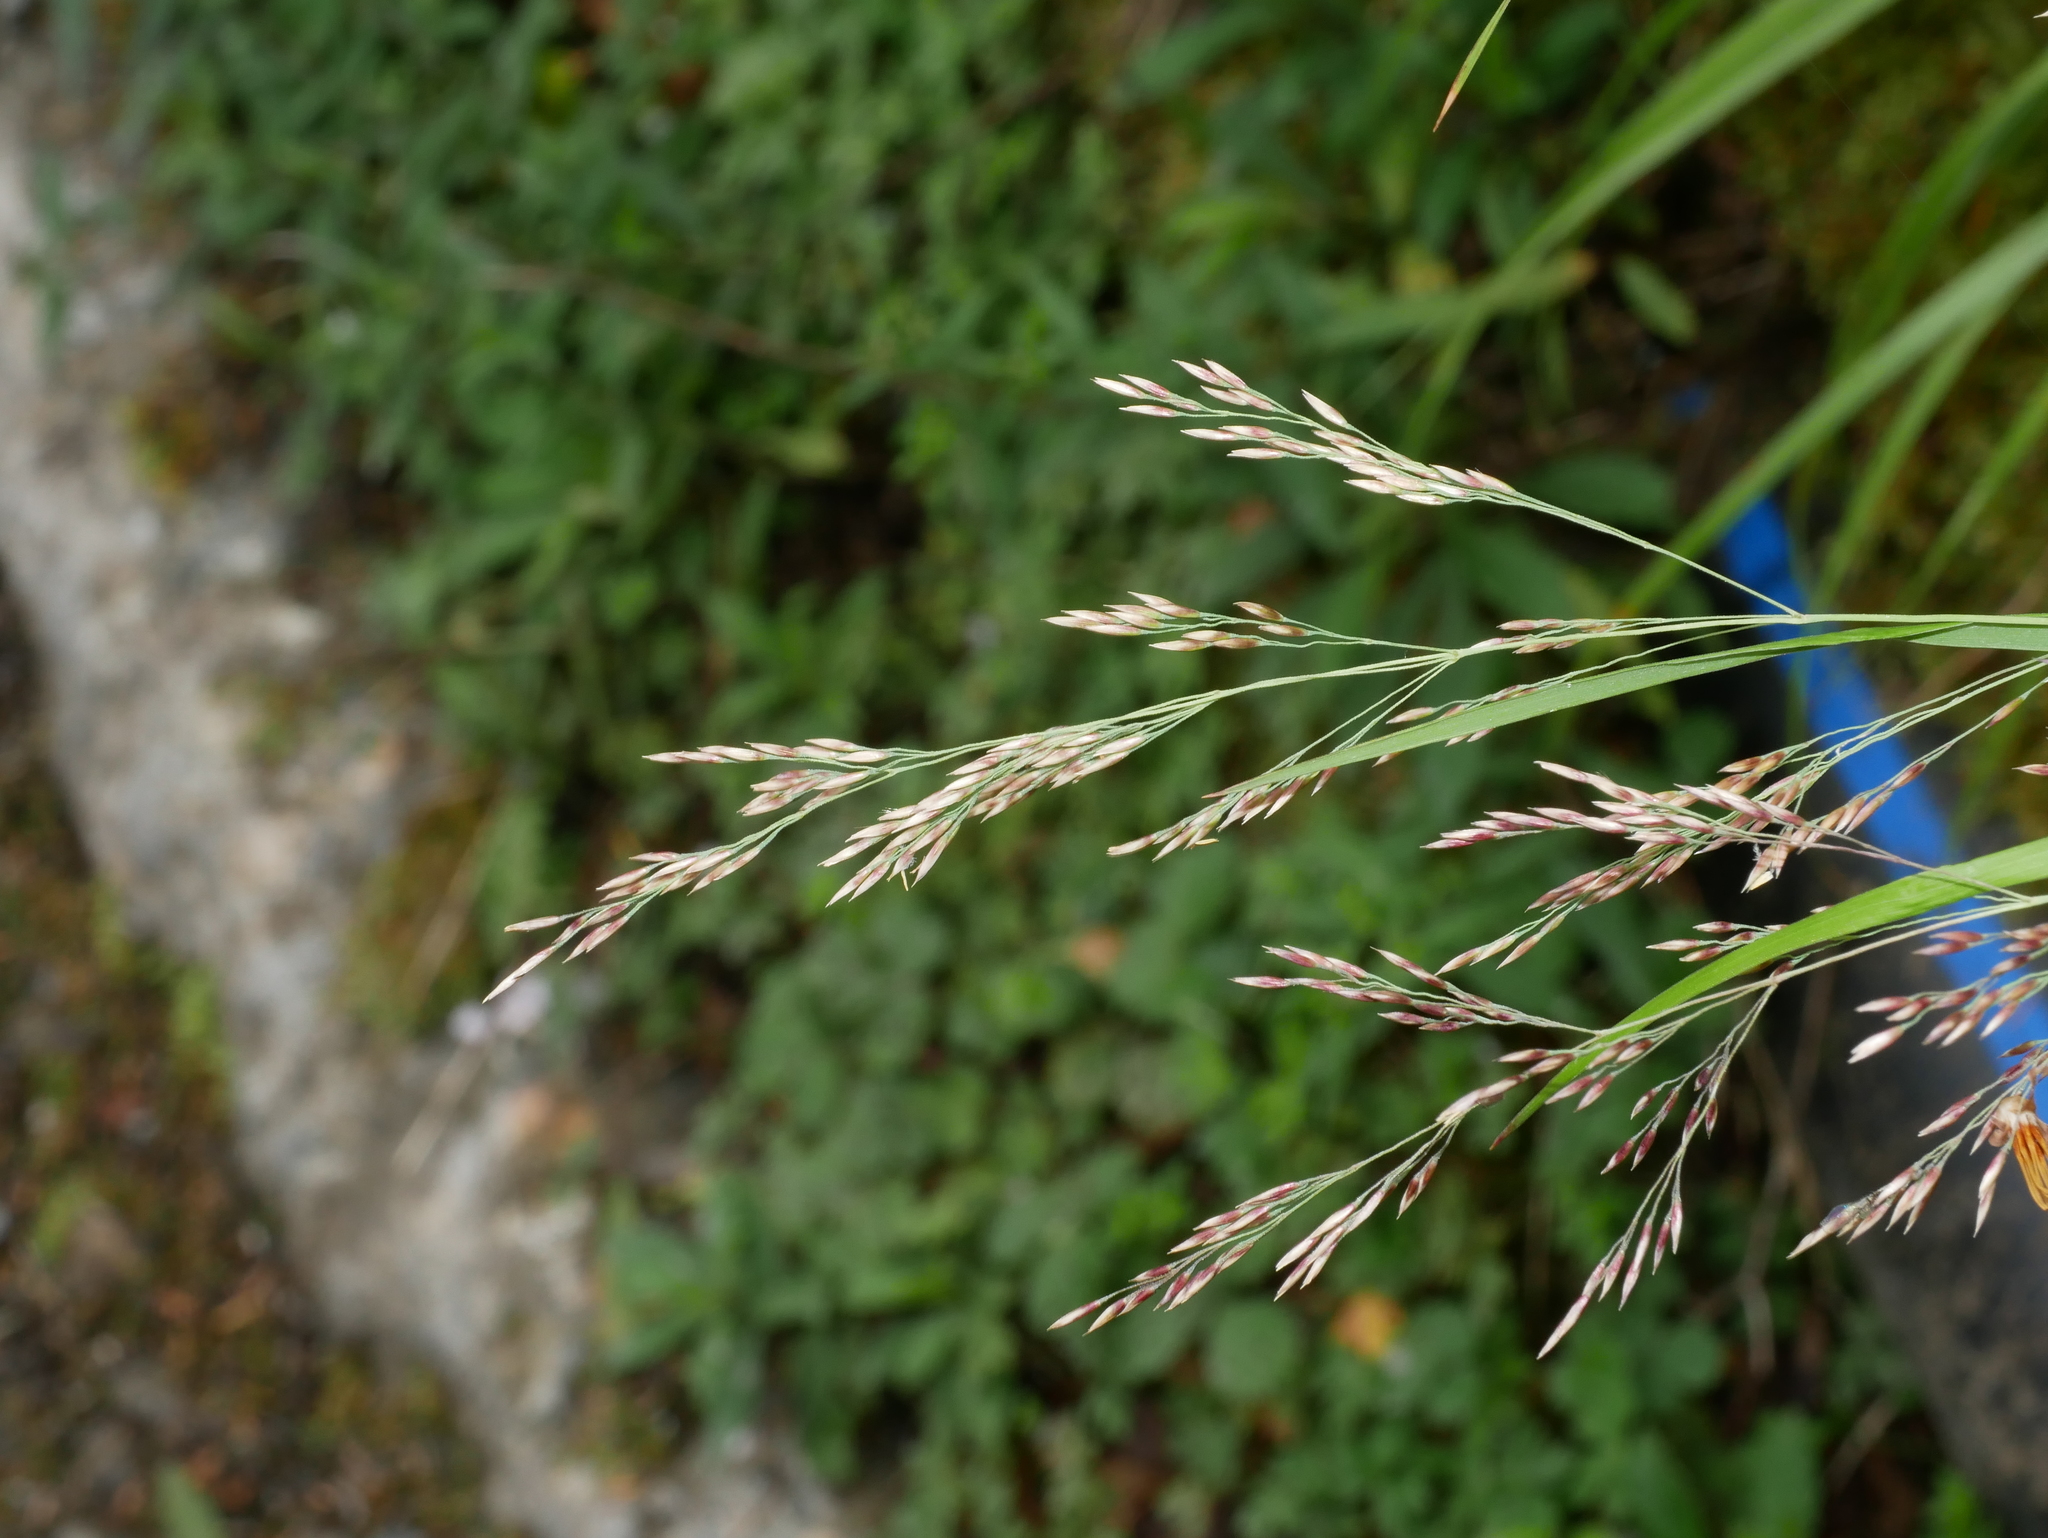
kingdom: Plantae
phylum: Tracheophyta
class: Liliopsida
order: Poales
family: Poaceae
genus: Deschampsia
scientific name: Deschampsia cespitosa
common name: Tufted hair-grass
